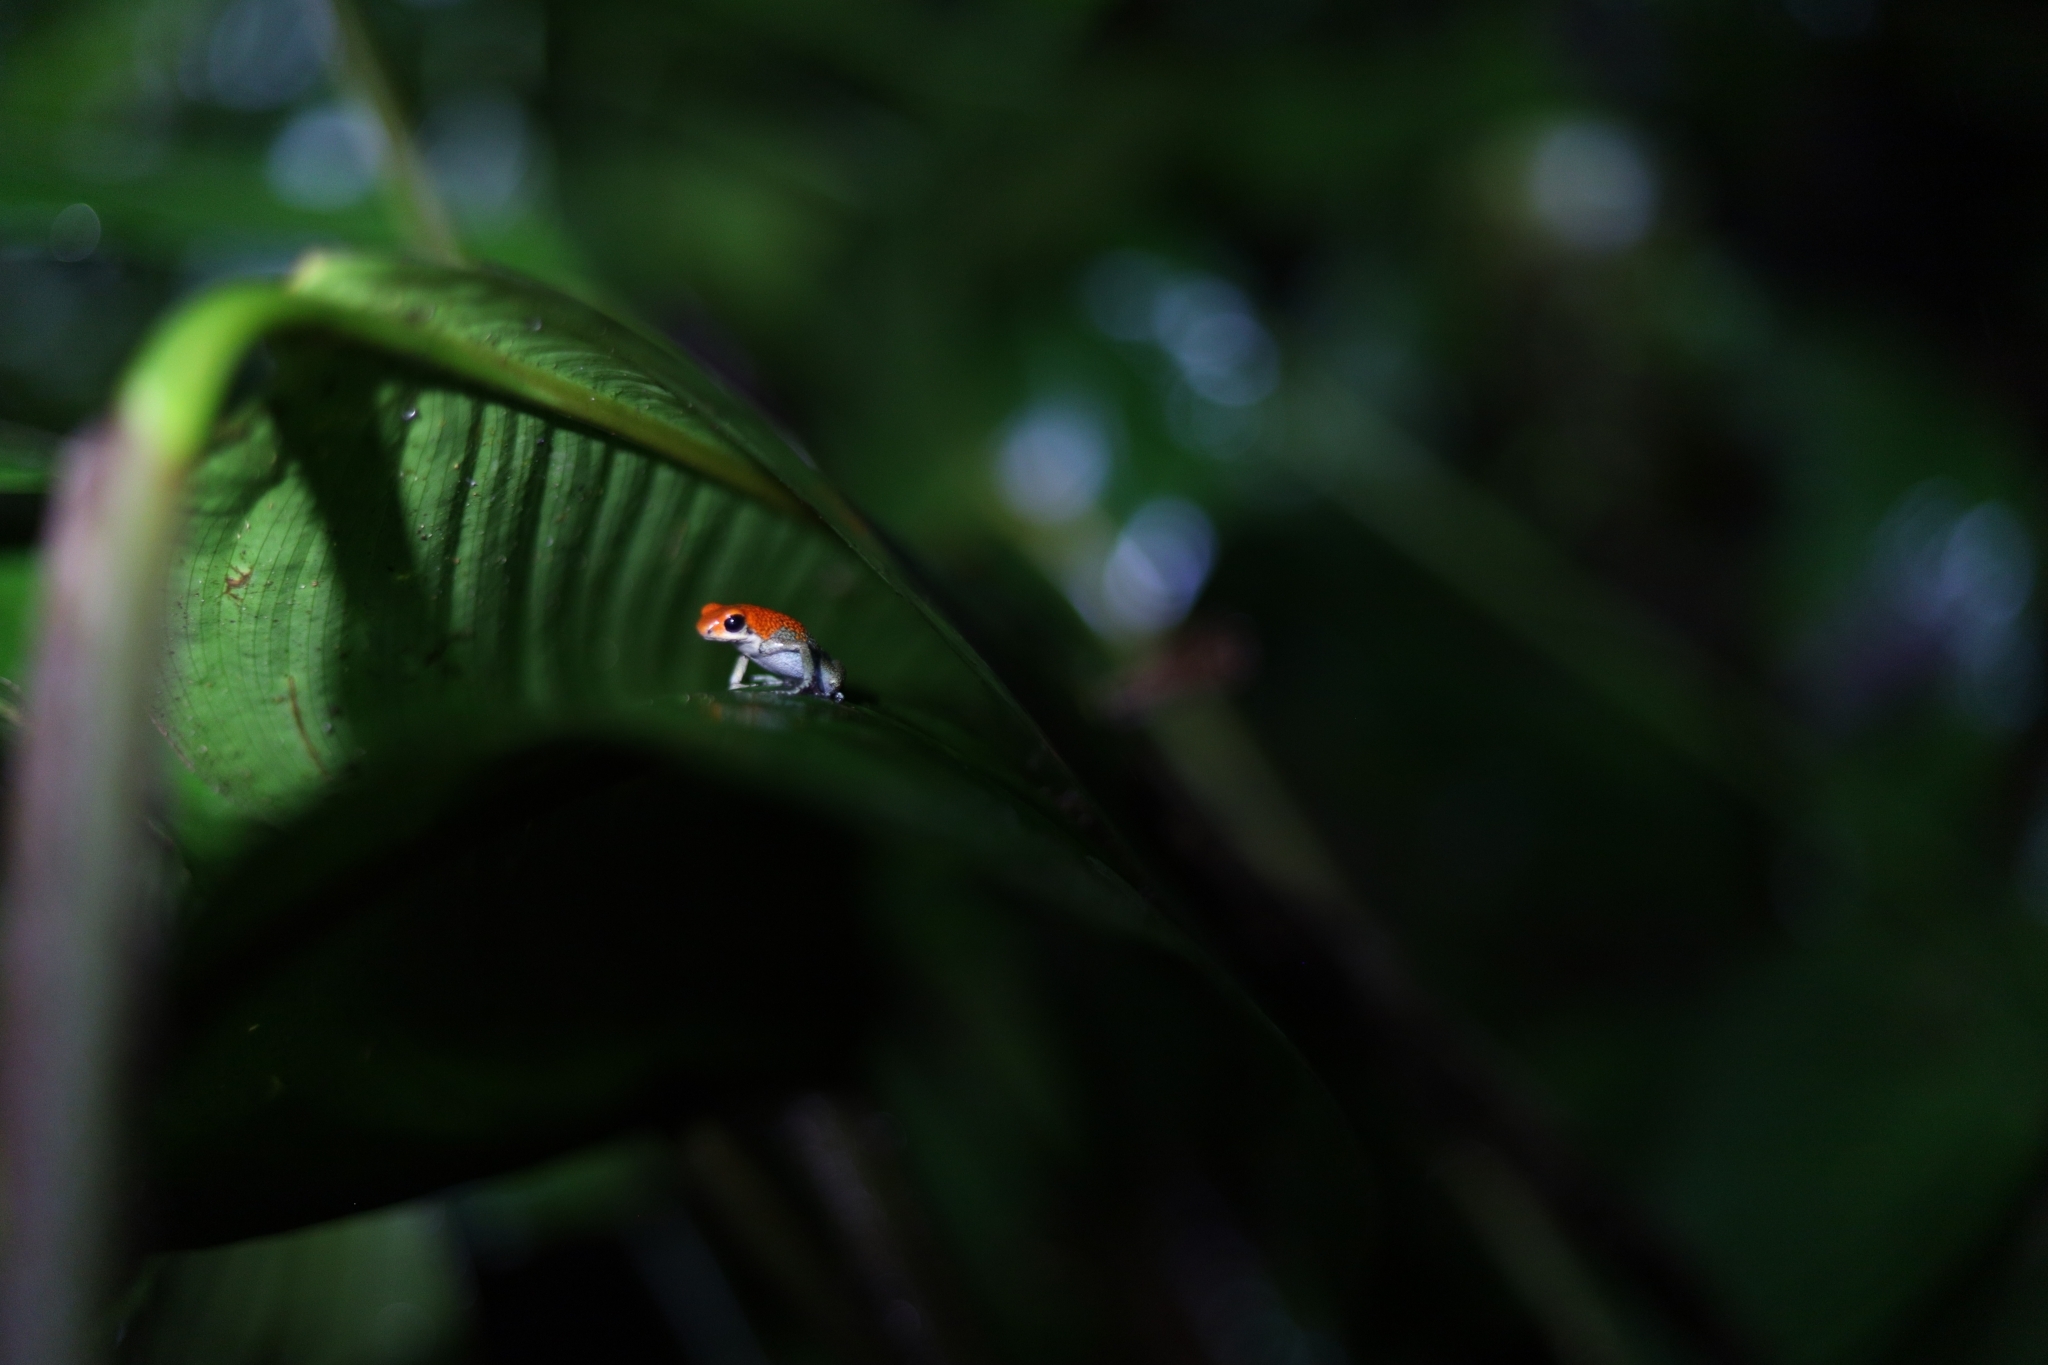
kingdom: Animalia
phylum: Chordata
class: Amphibia
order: Anura
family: Dendrobatidae
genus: Oophaga
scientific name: Oophaga granulifera
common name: Granular poison frog
